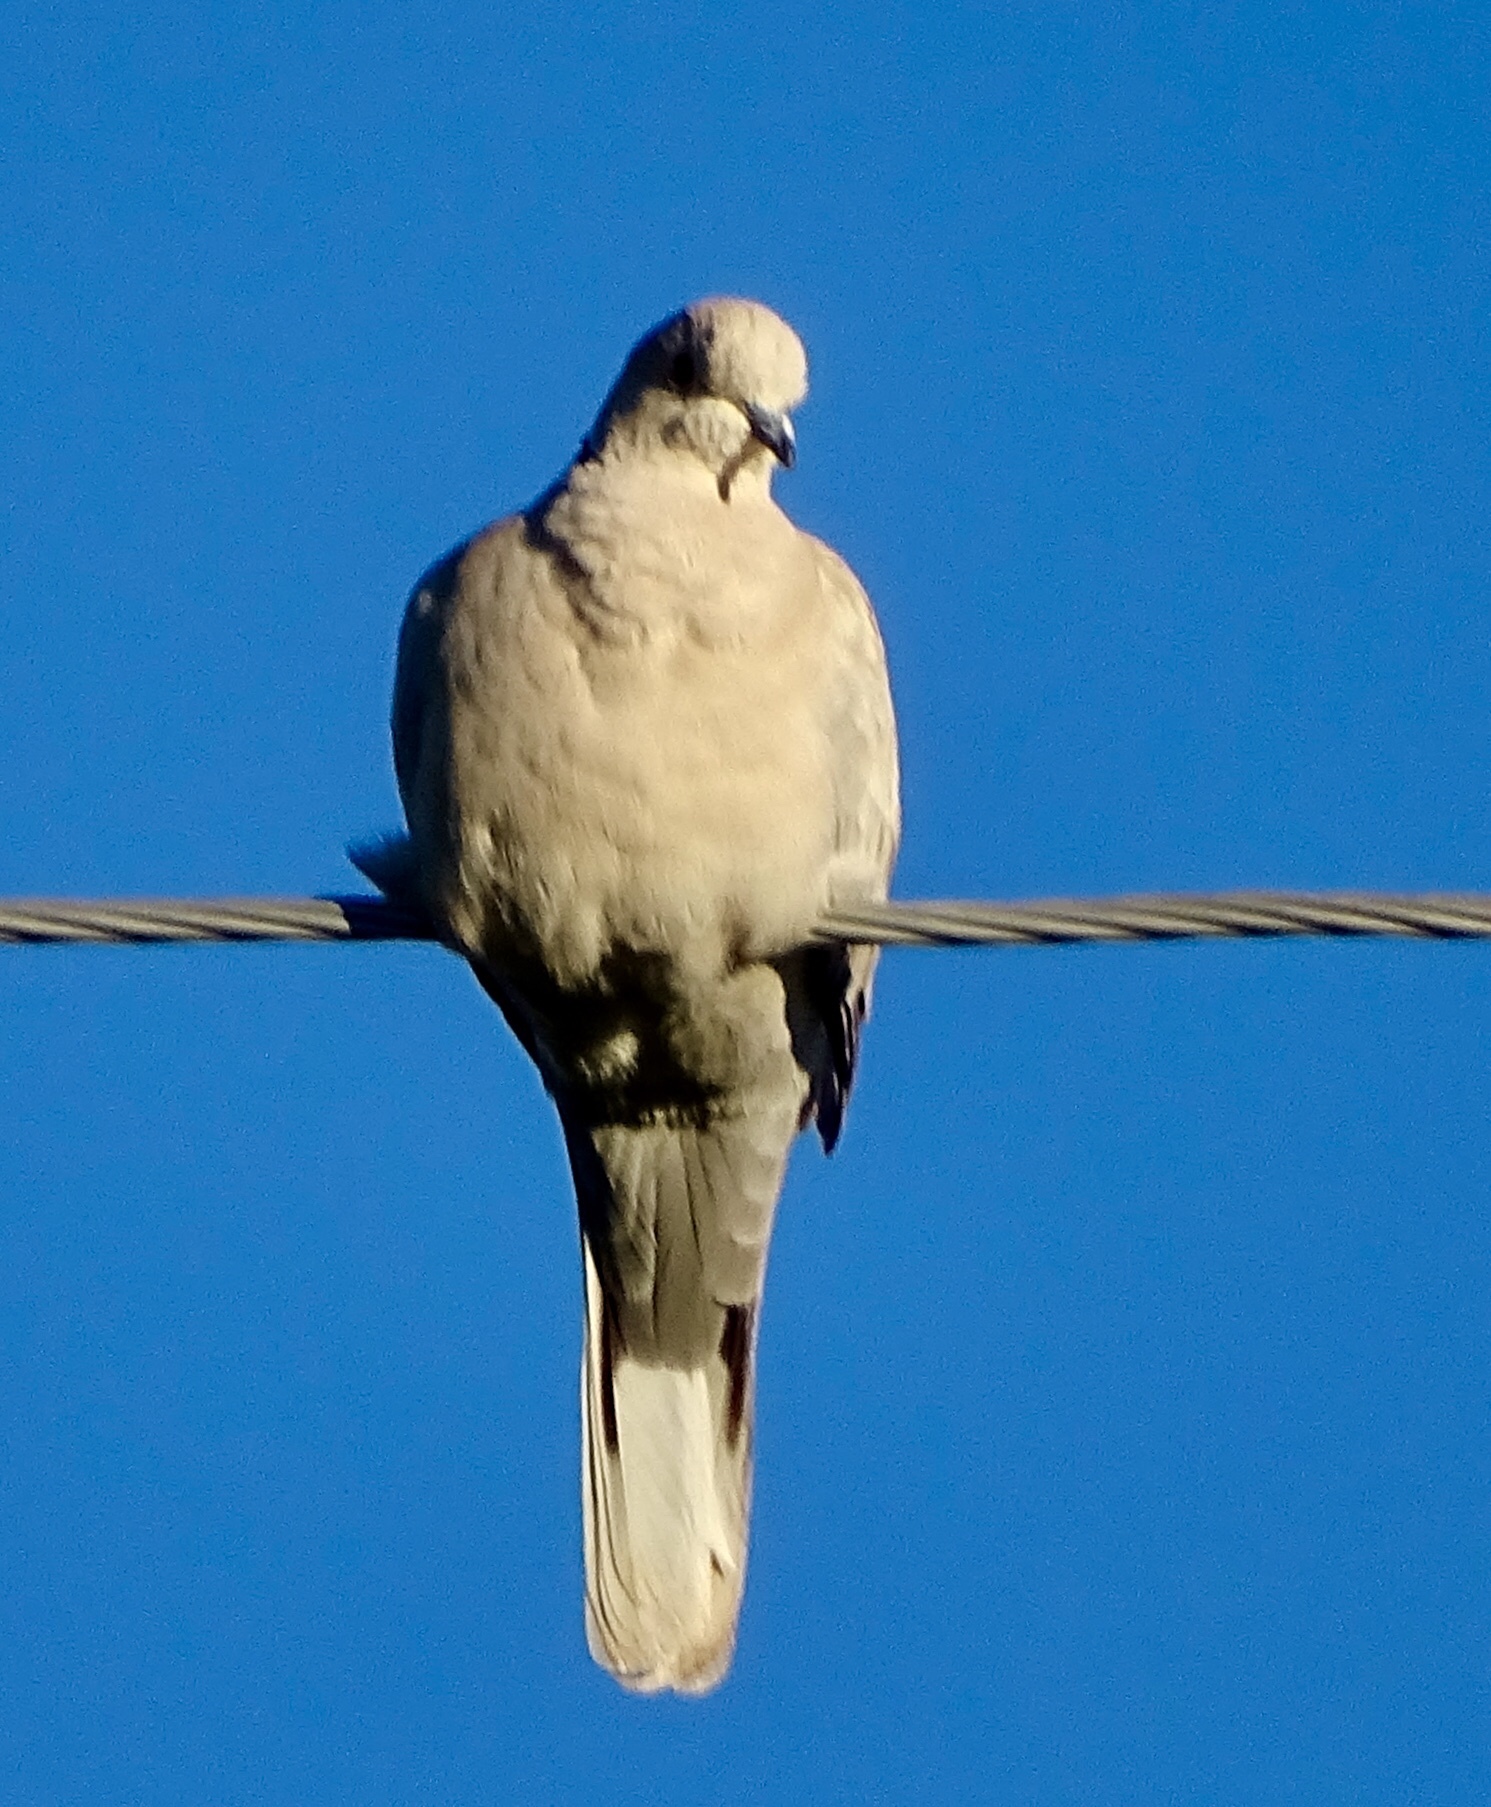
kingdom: Animalia
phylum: Chordata
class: Aves
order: Columbiformes
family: Columbidae
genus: Streptopelia
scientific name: Streptopelia decaocto
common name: Eurasian collared dove
